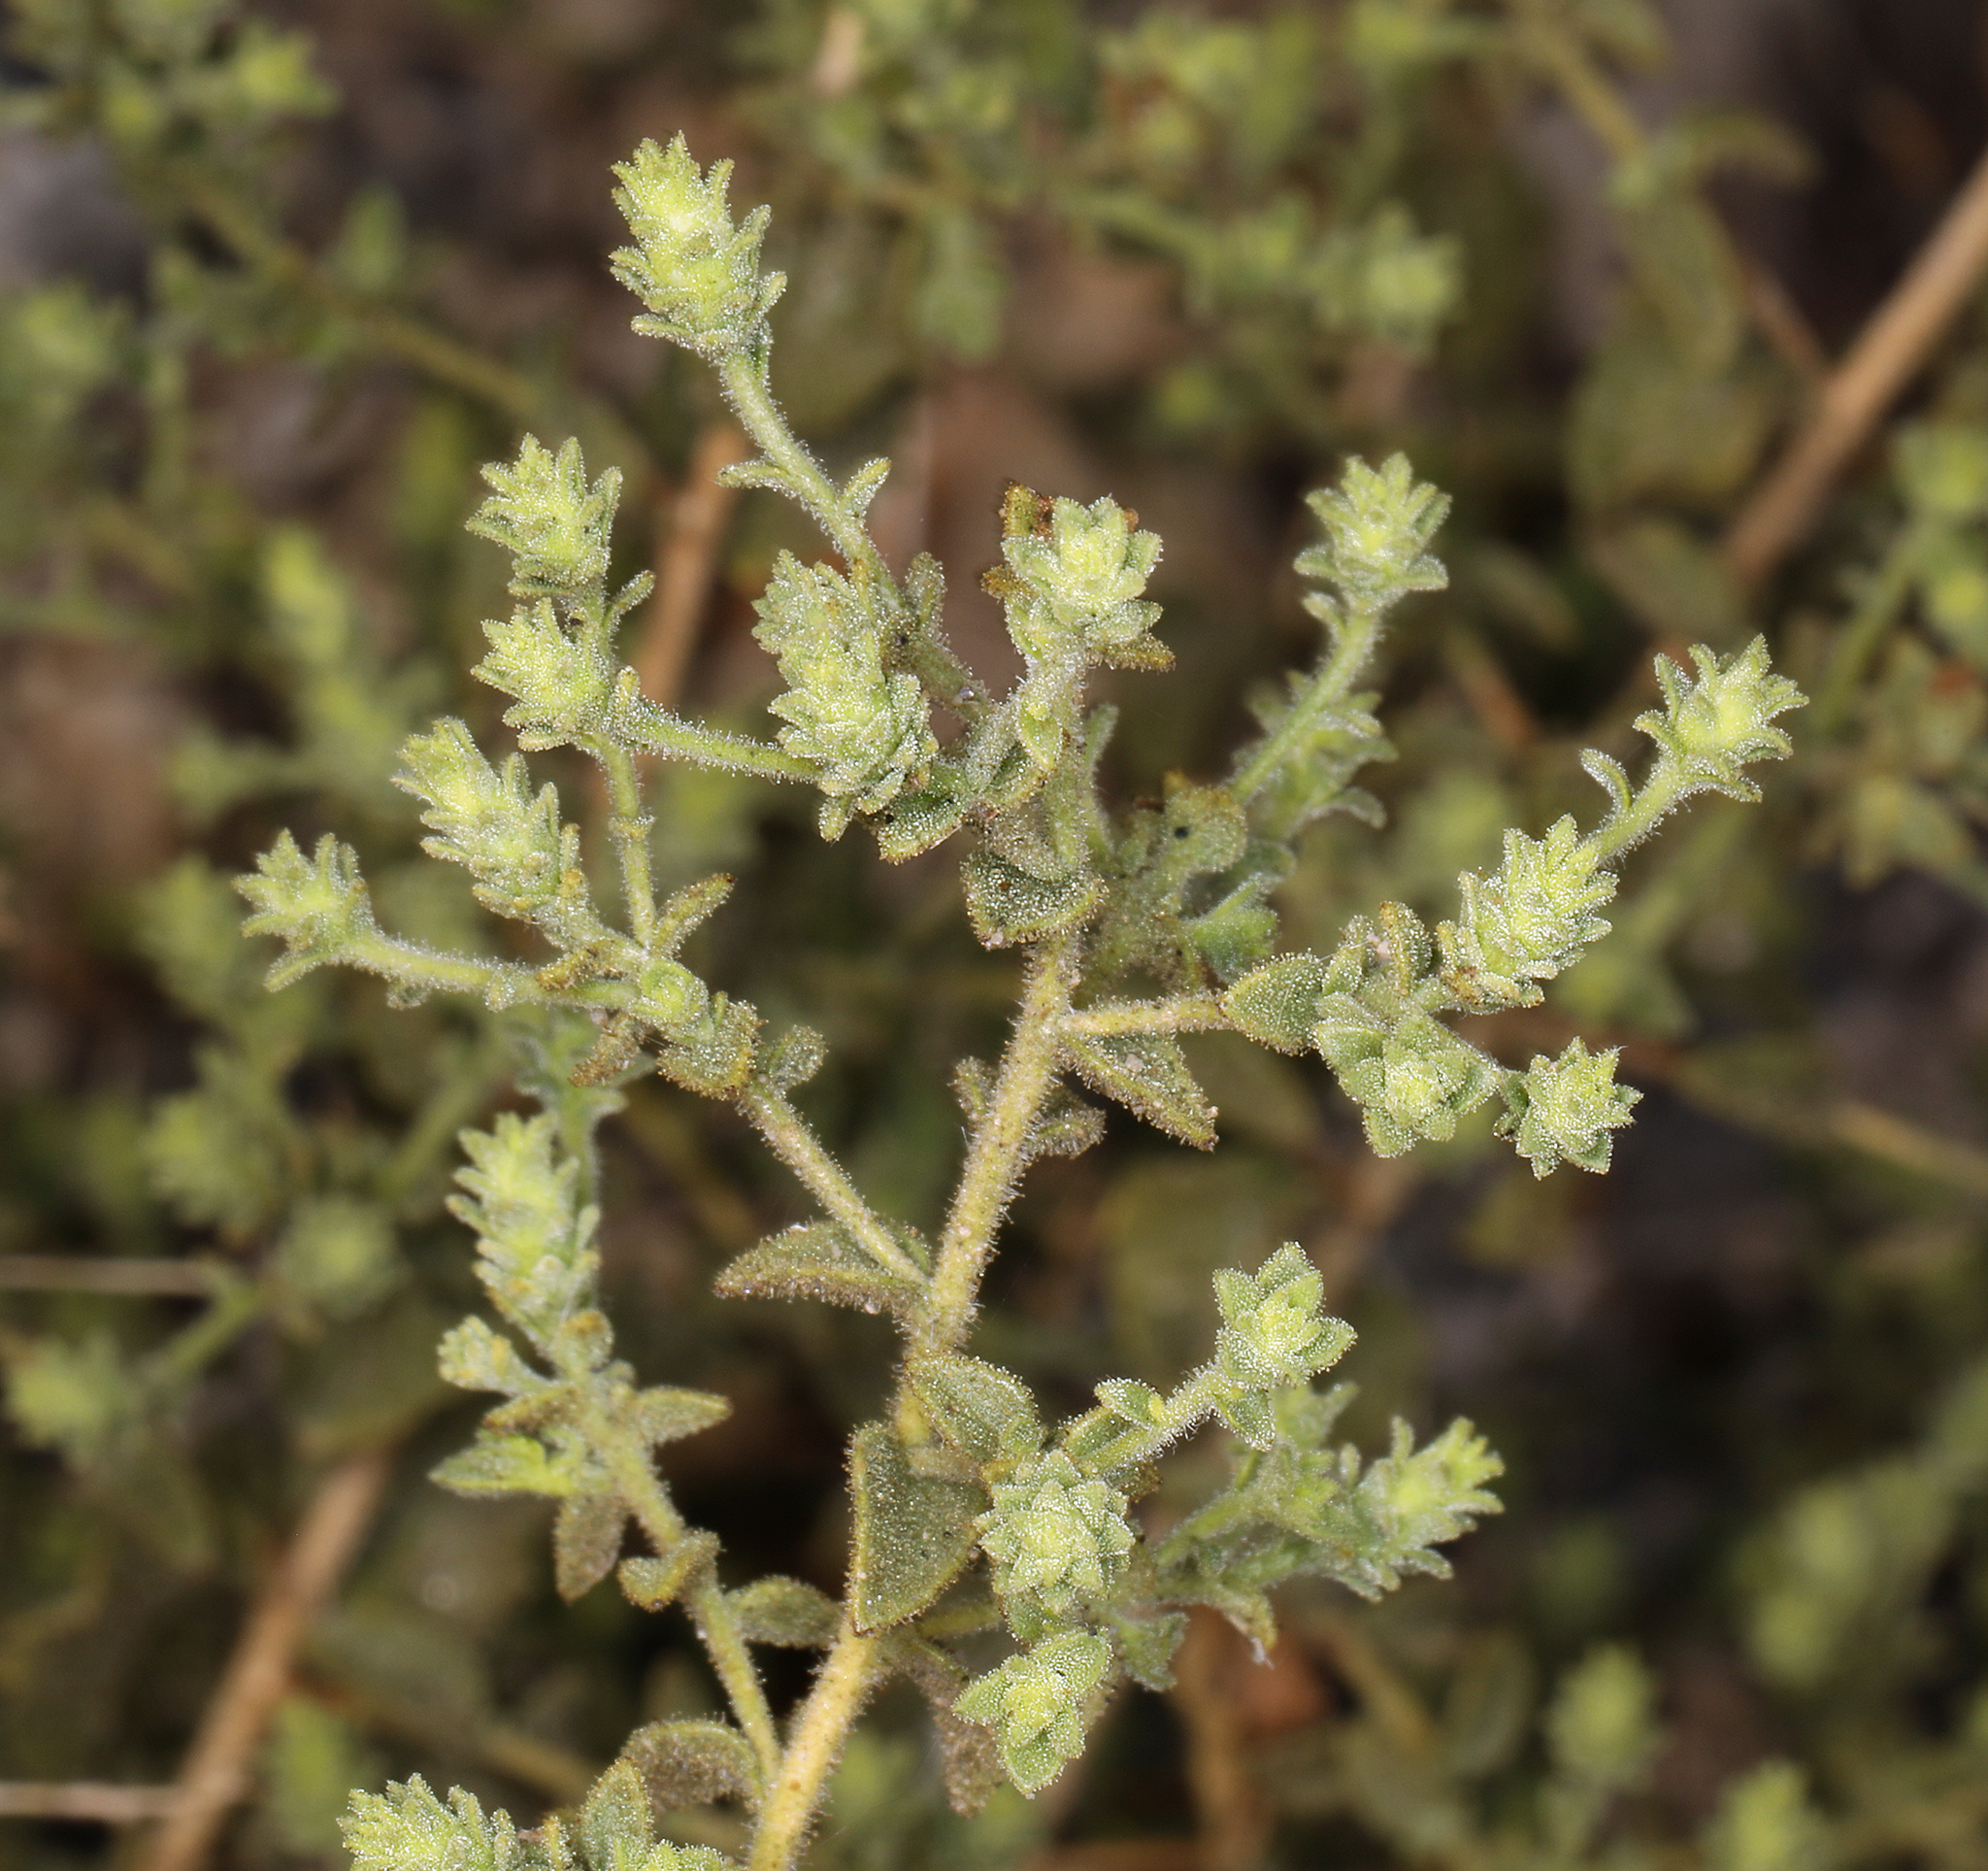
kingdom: Plantae
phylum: Tracheophyta
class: Magnoliopsida
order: Asterales
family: Asteraceae
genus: Brickellia
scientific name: Brickellia microphylla
